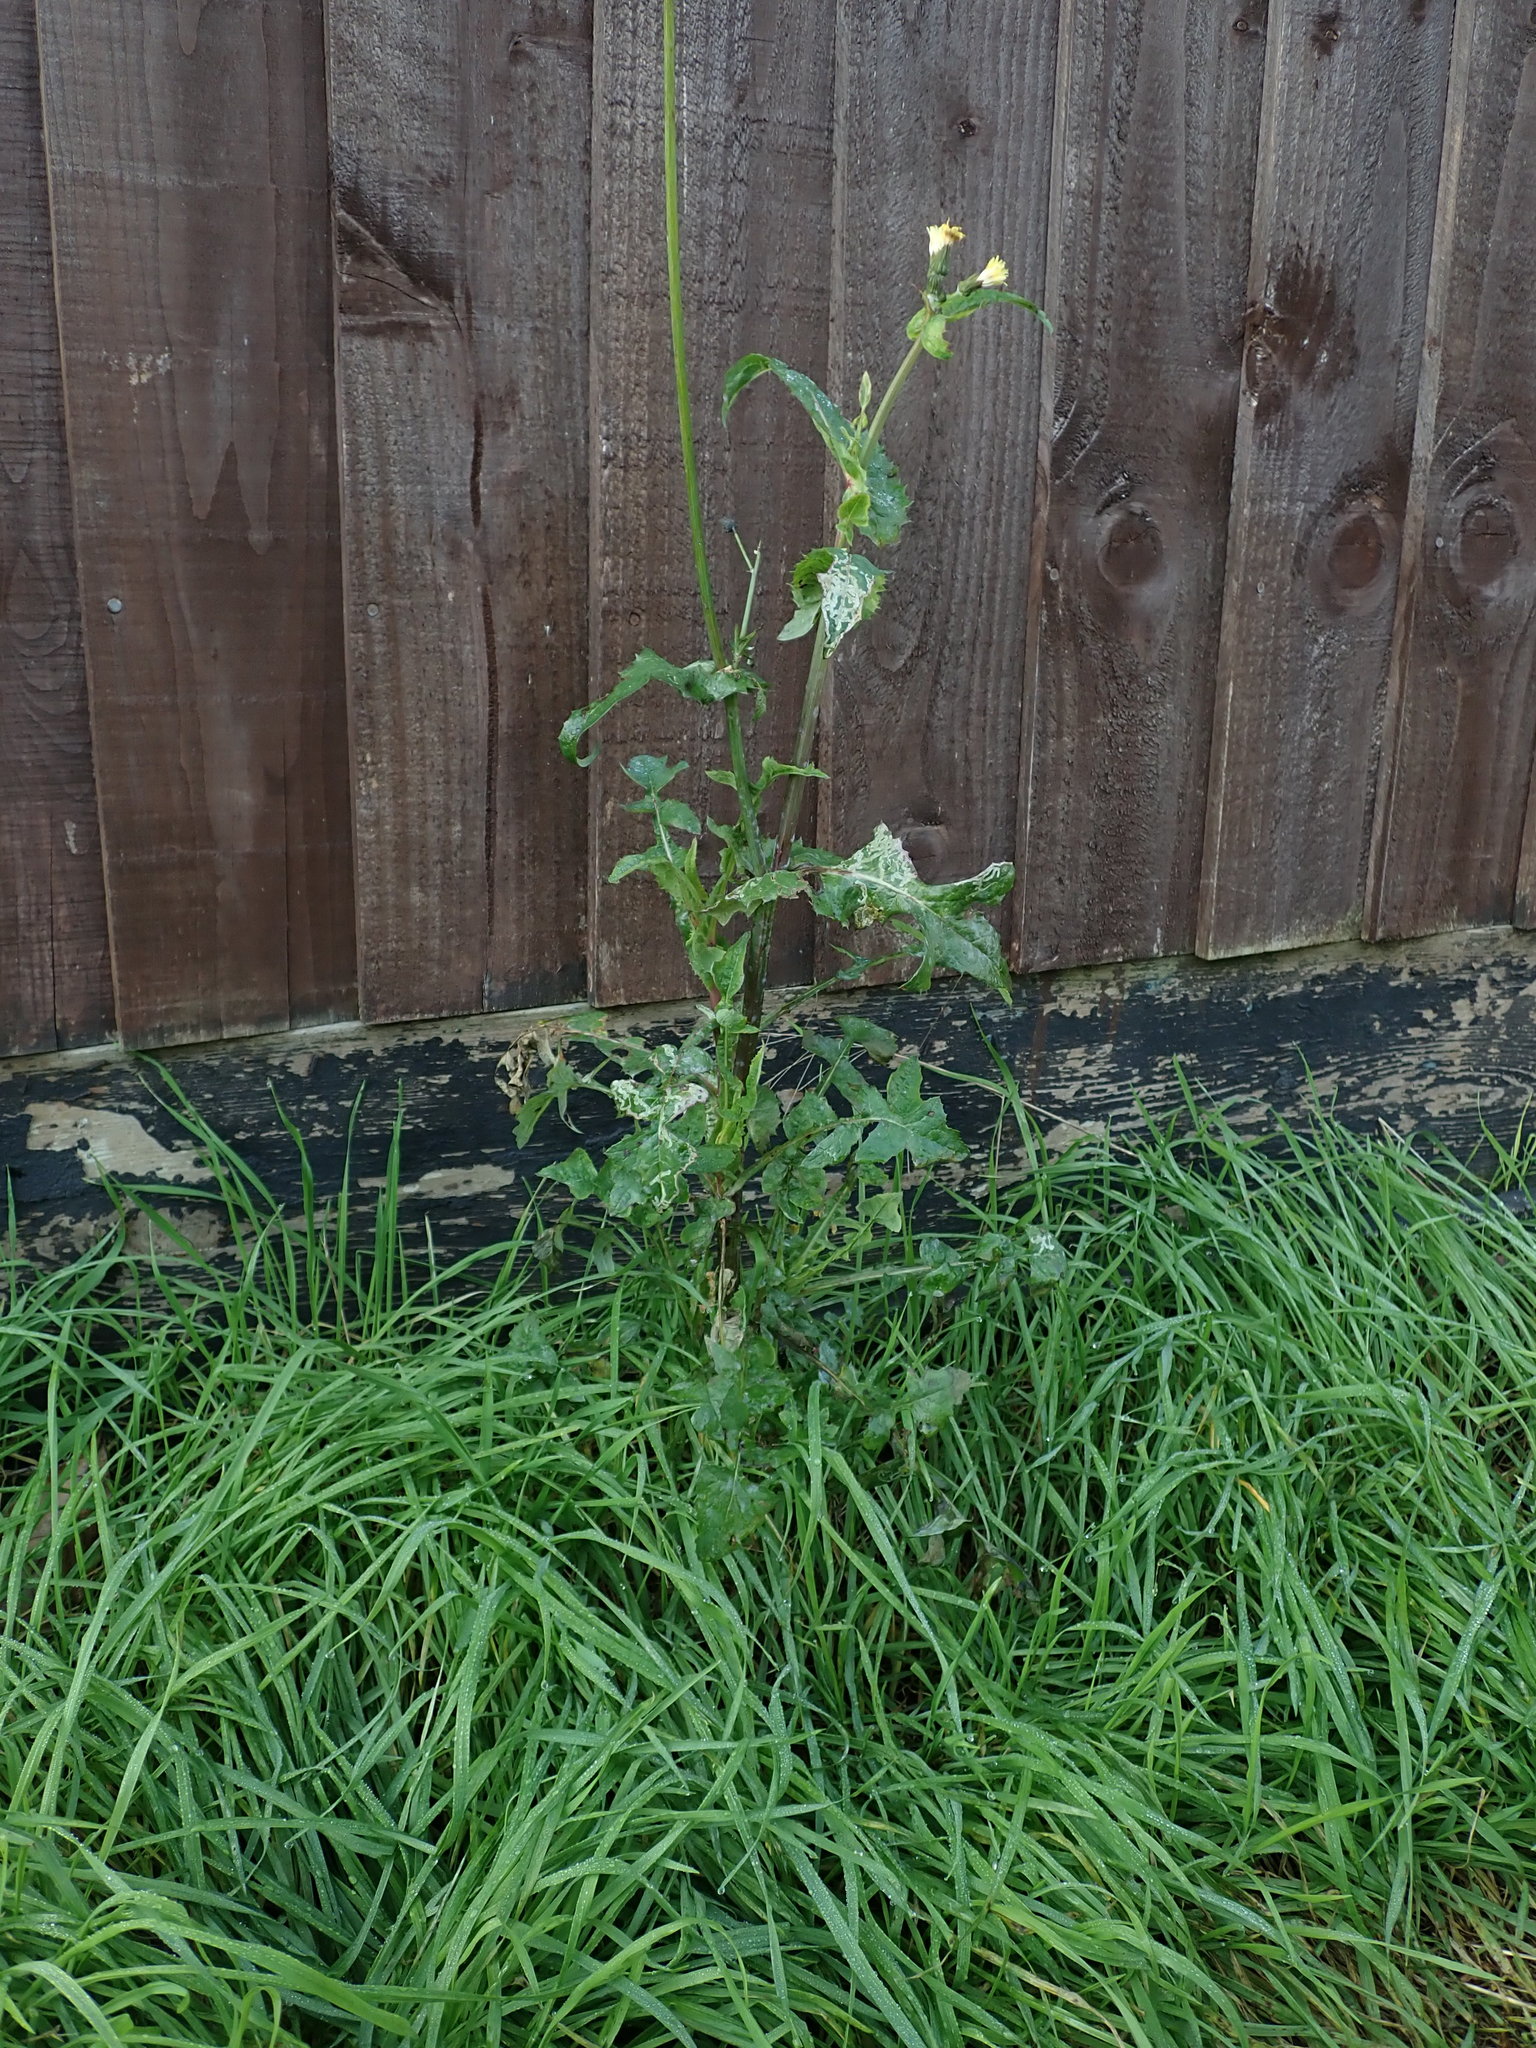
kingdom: Plantae
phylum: Tracheophyta
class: Magnoliopsida
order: Asterales
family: Asteraceae
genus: Sonchus
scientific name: Sonchus oleraceus
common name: Common sowthistle
